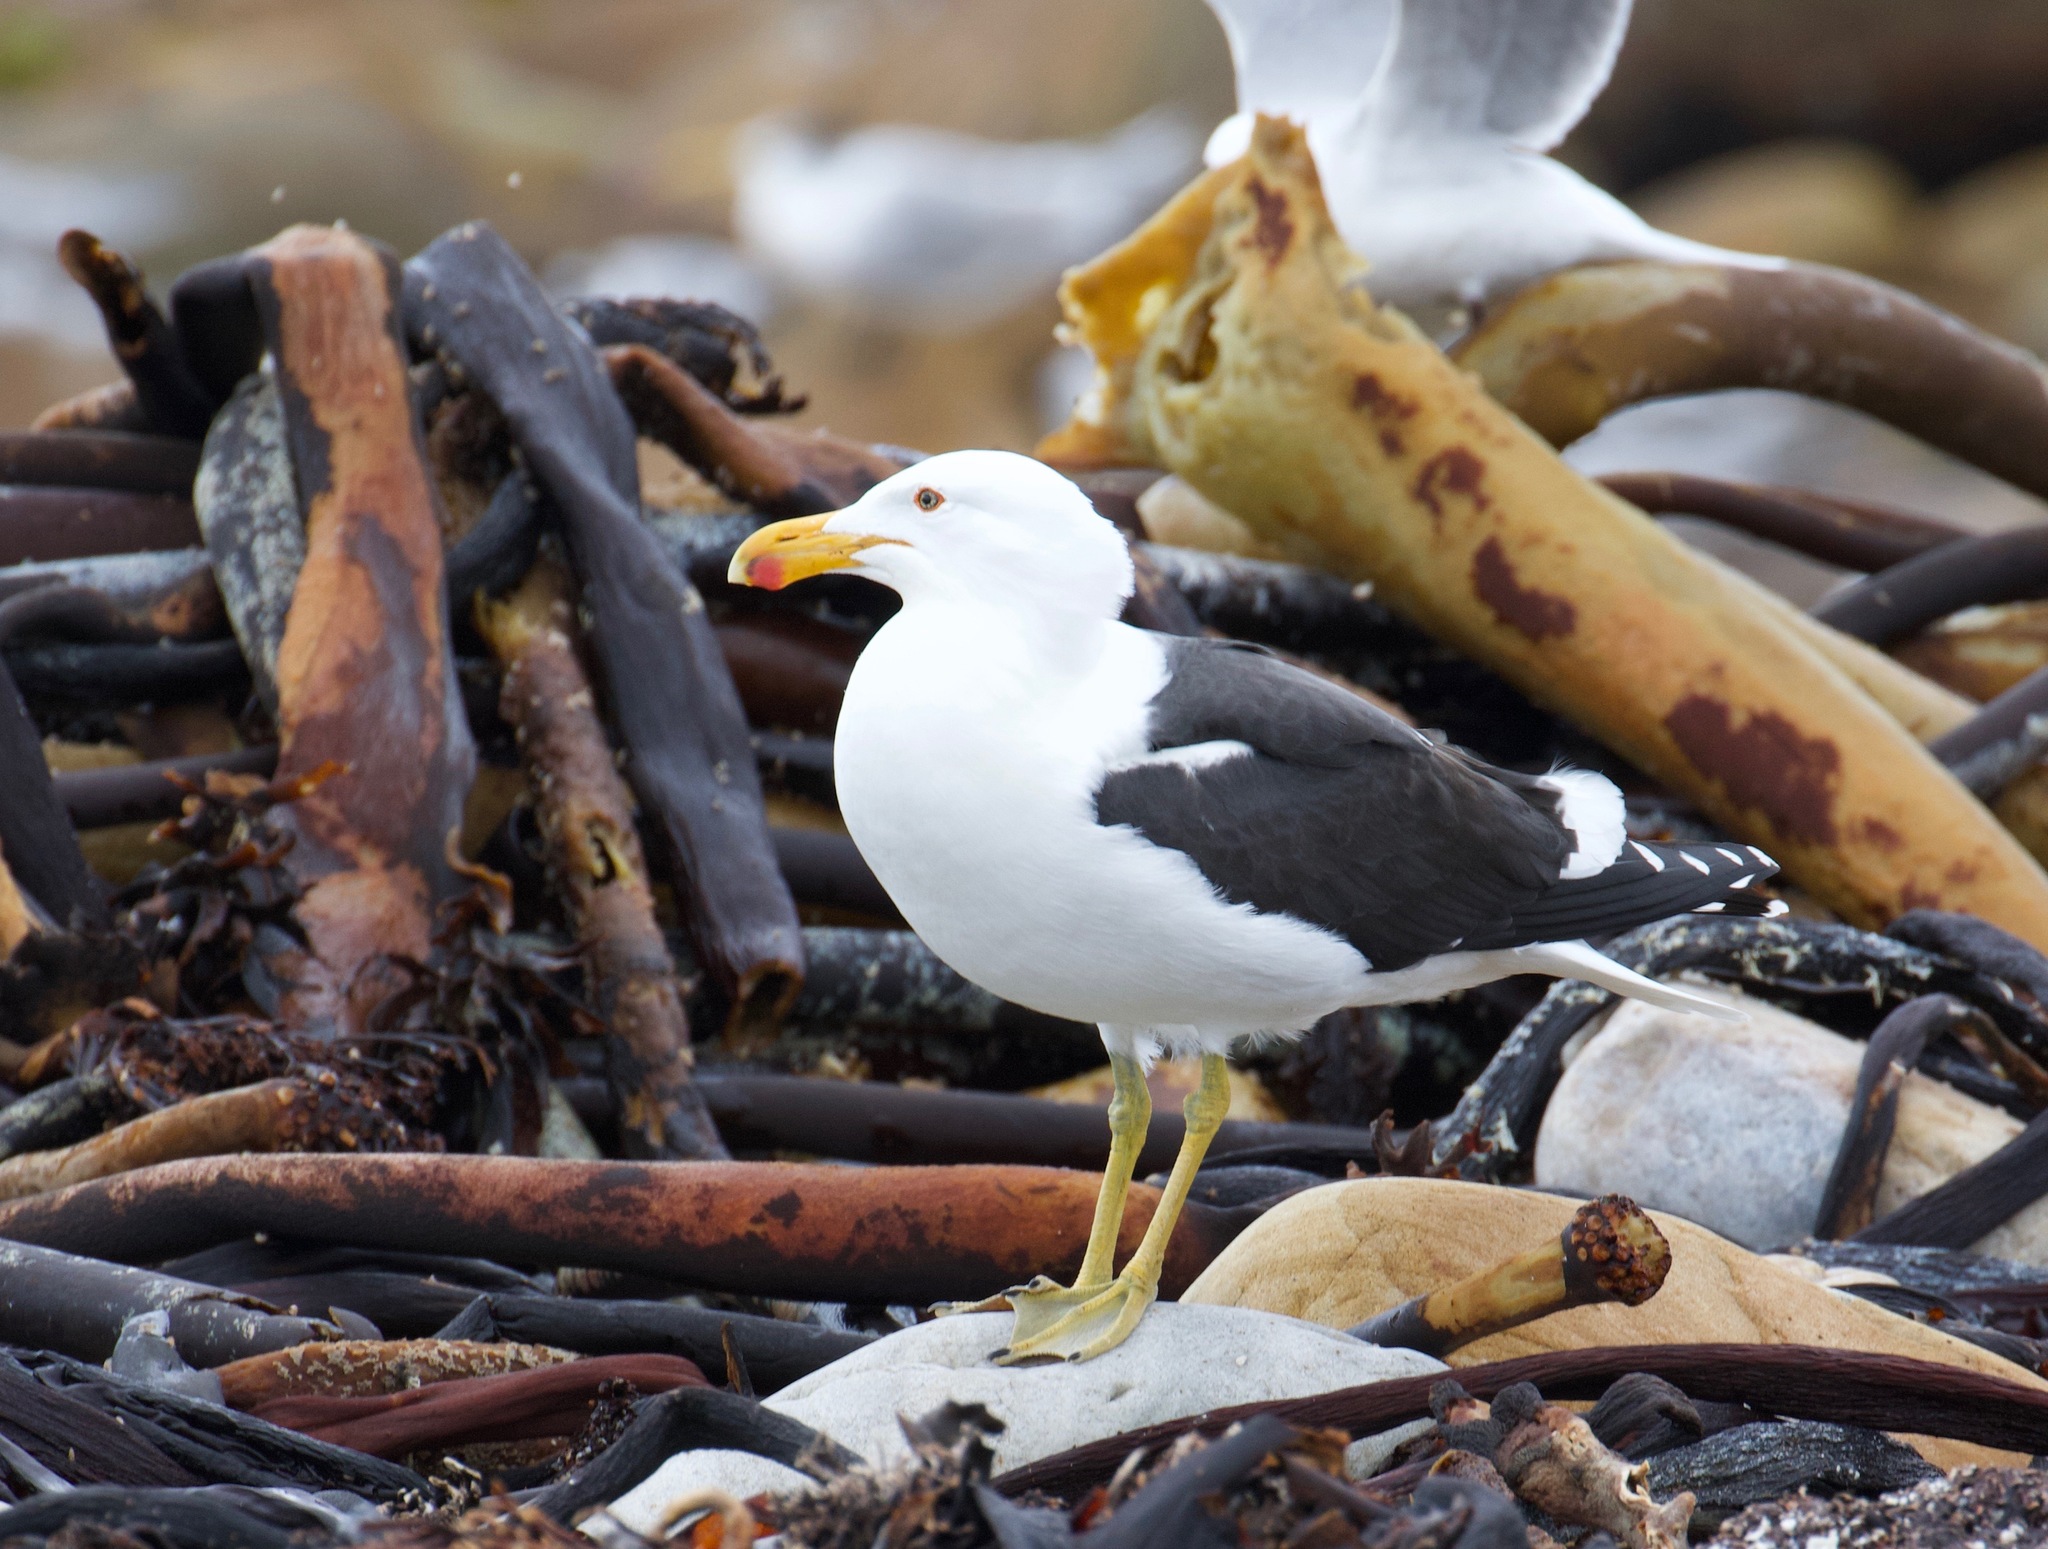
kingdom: Animalia
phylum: Chordata
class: Aves
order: Charadriiformes
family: Laridae
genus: Larus
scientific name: Larus dominicanus
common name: Kelp gull
